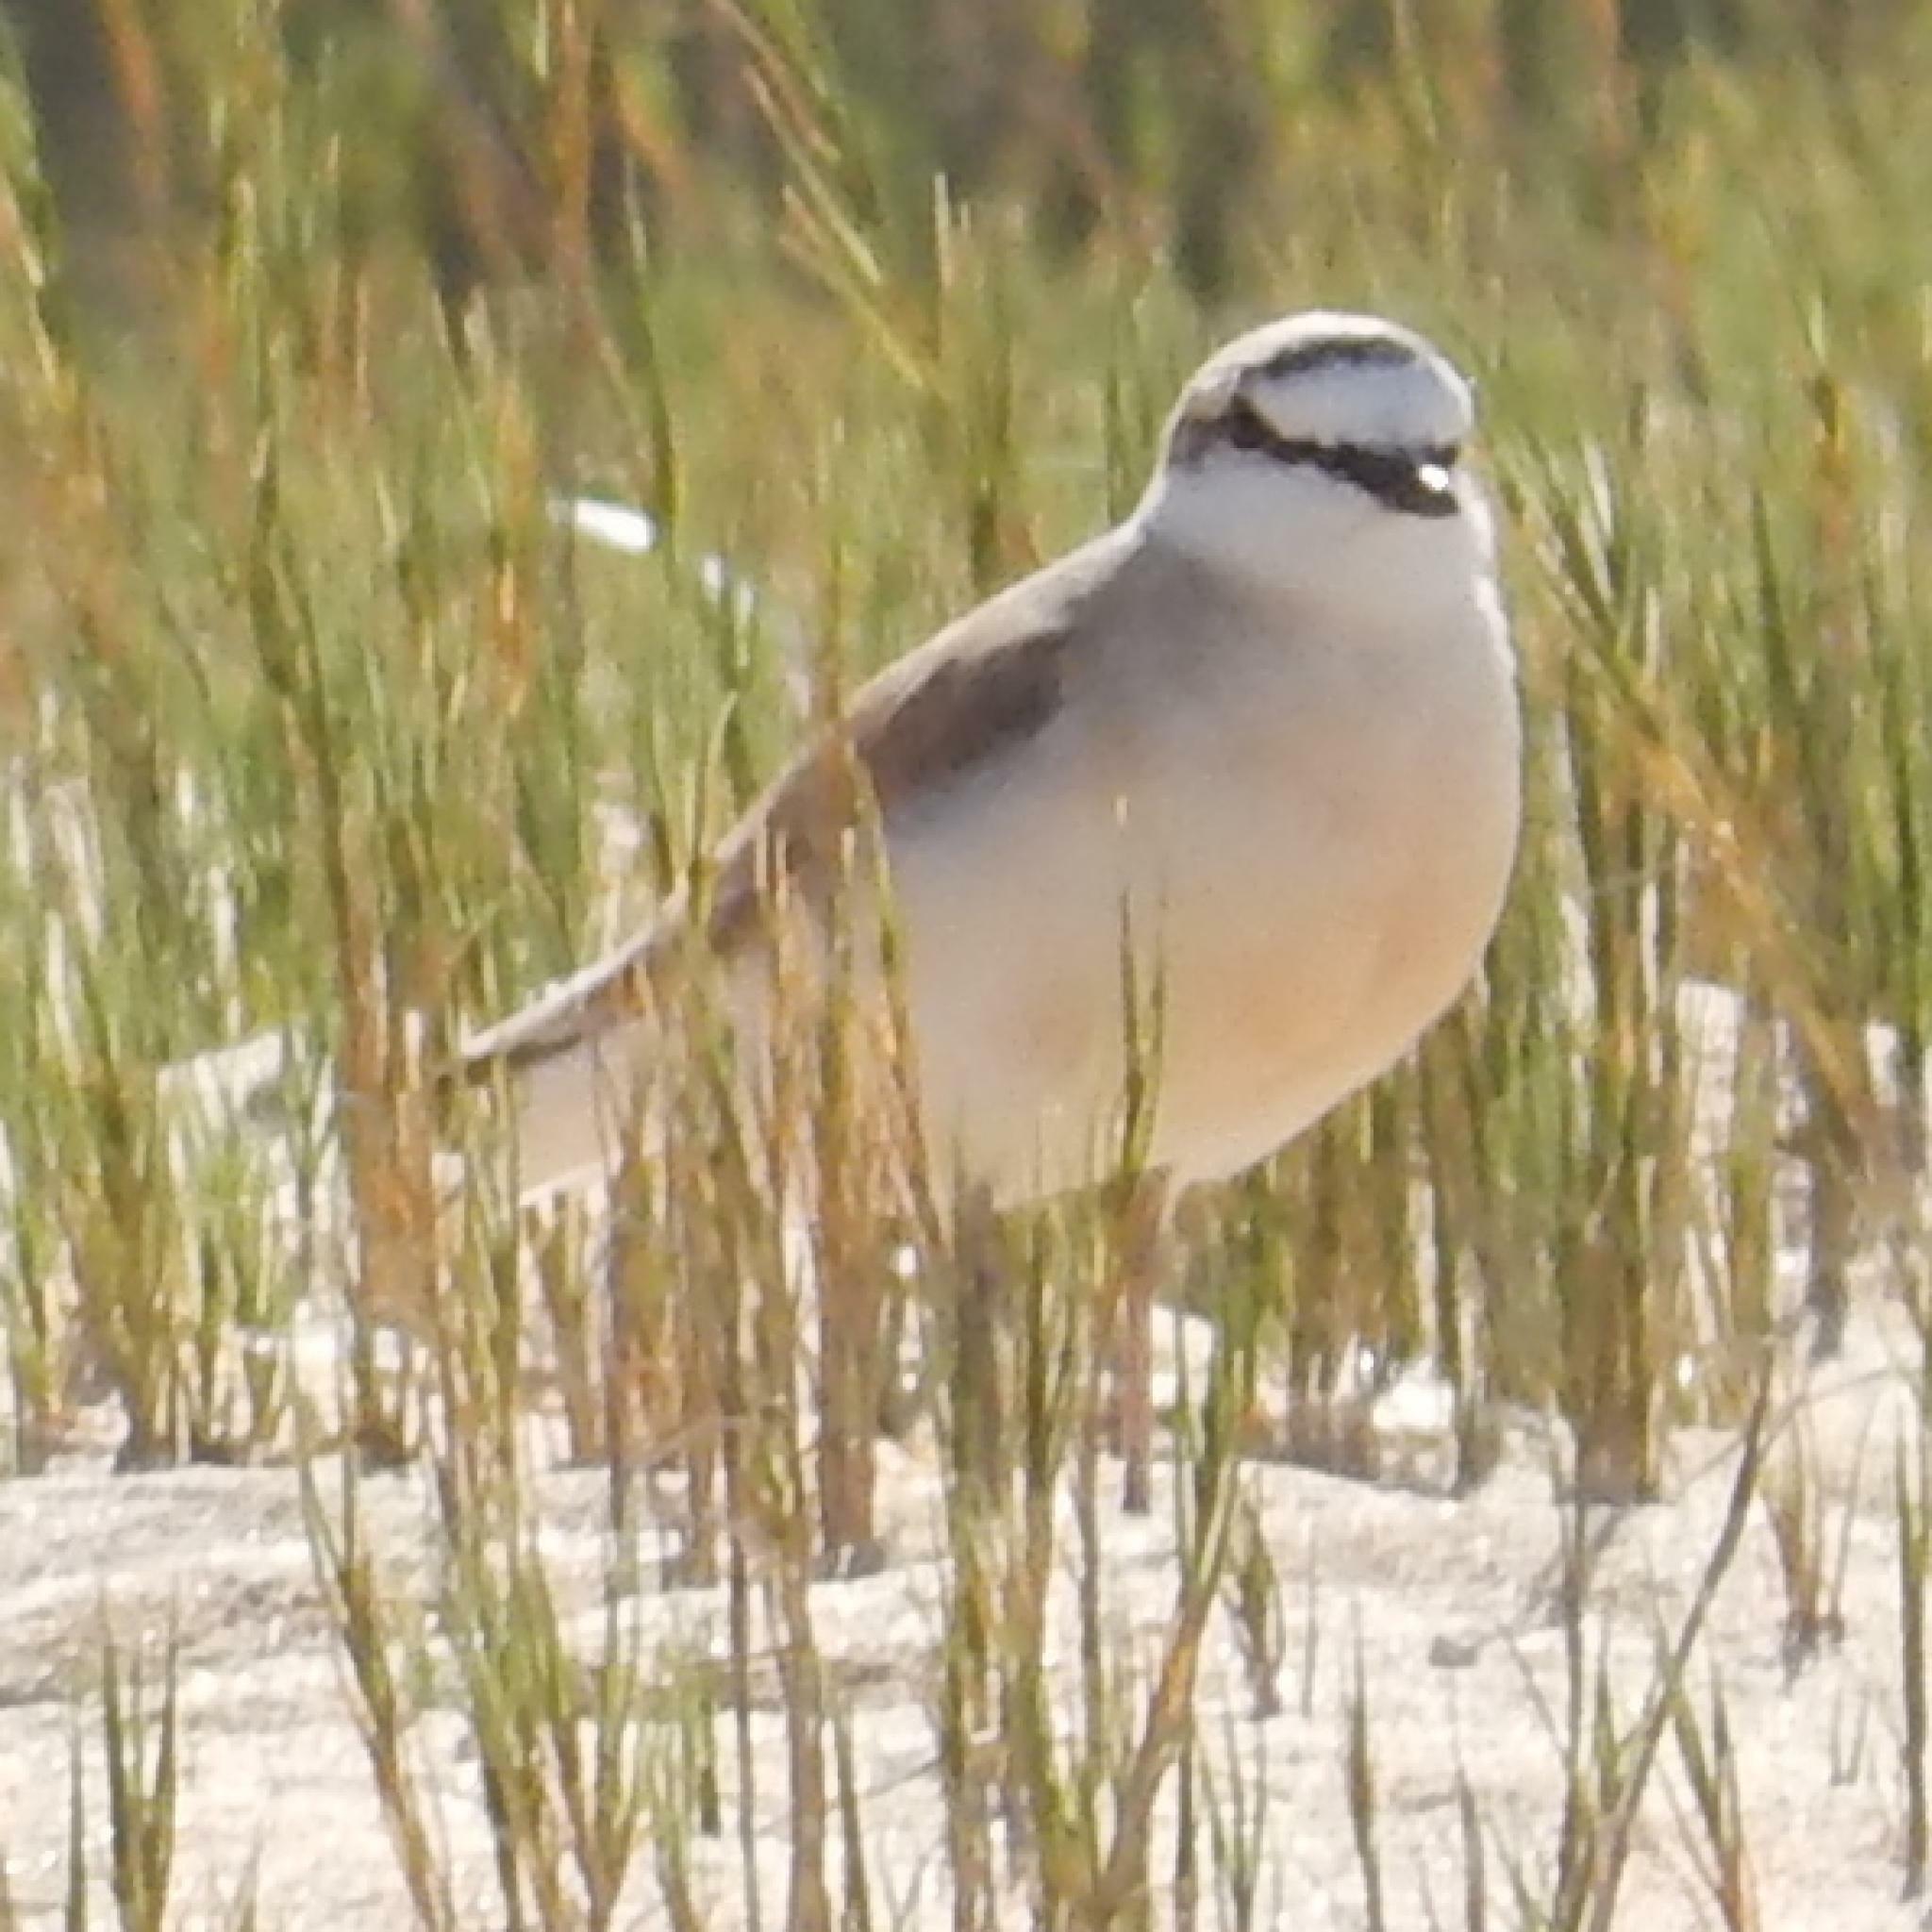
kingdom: Animalia
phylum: Chordata
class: Aves
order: Charadriiformes
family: Charadriidae
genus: Anarhynchus
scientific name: Anarhynchus
